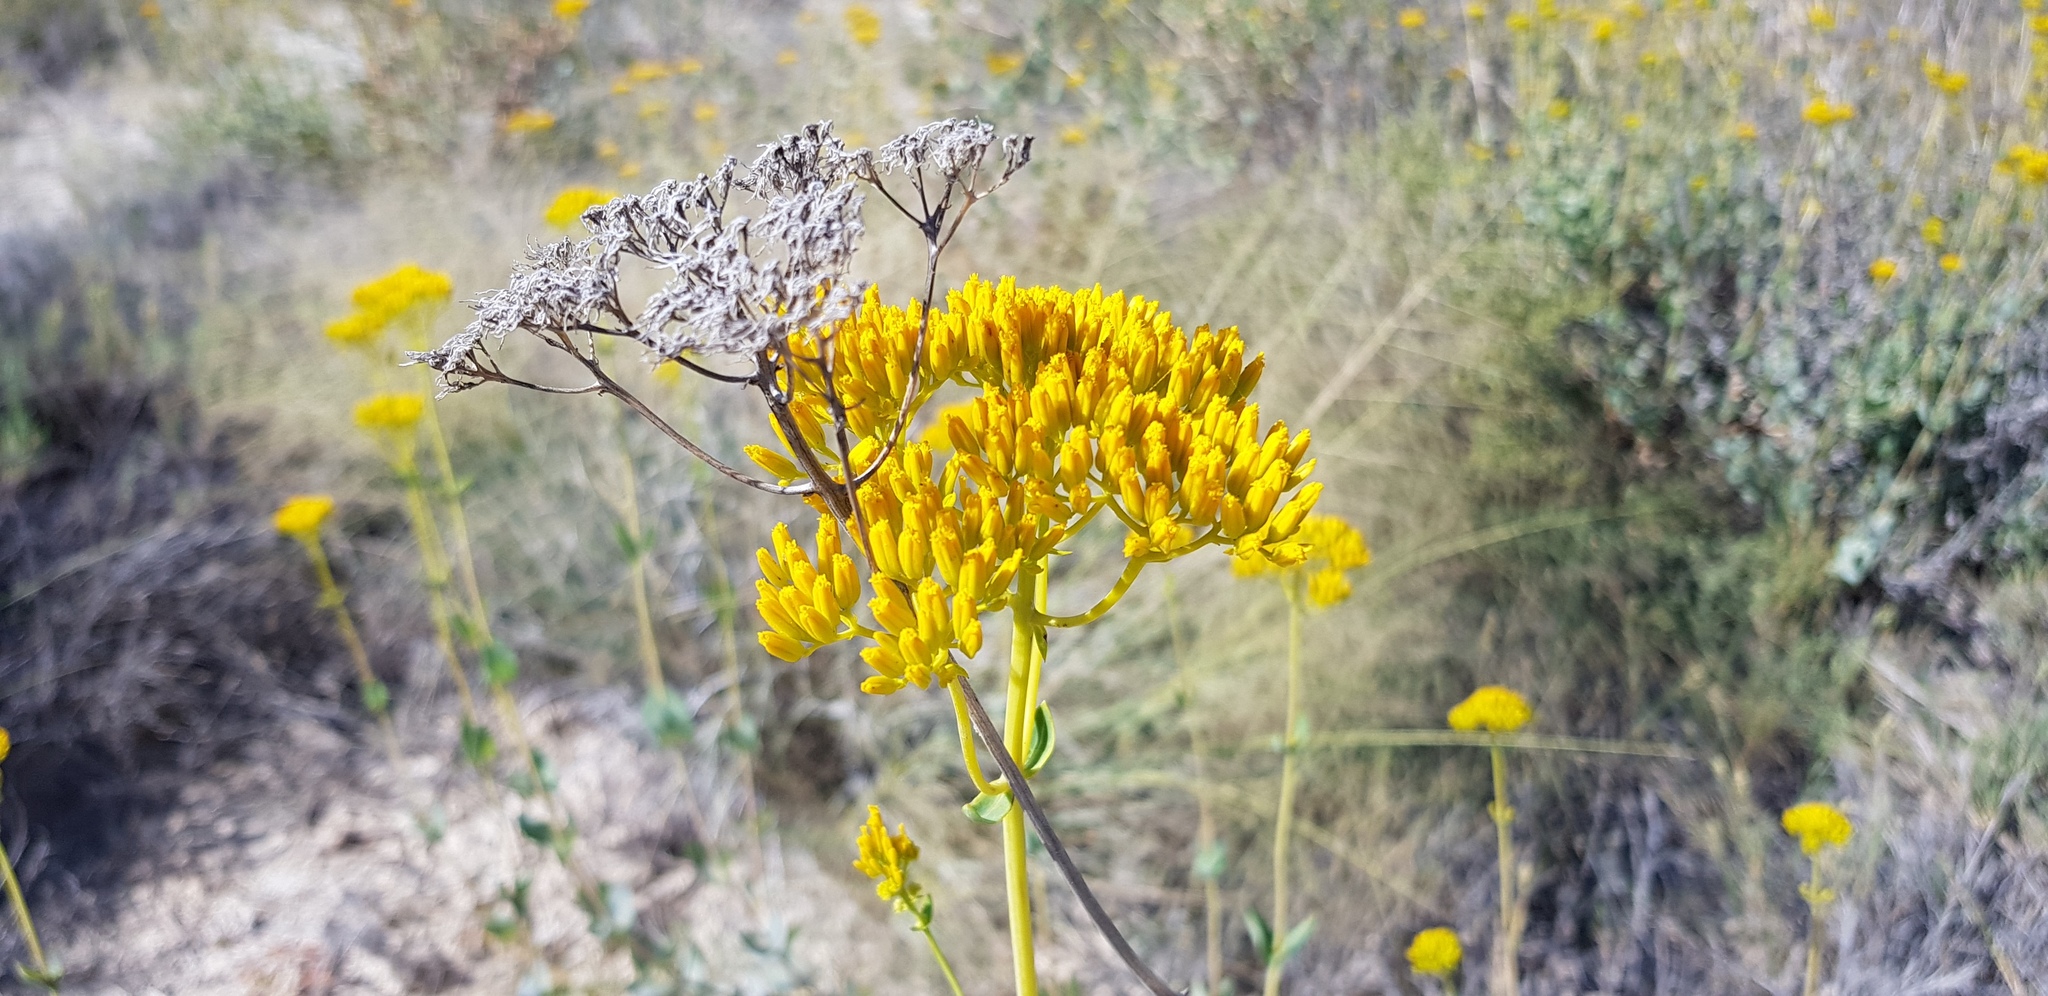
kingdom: Plantae
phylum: Tracheophyta
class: Magnoliopsida
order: Asterales
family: Asteraceae
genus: Flaveria
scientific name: Flaveria chlorifolia
